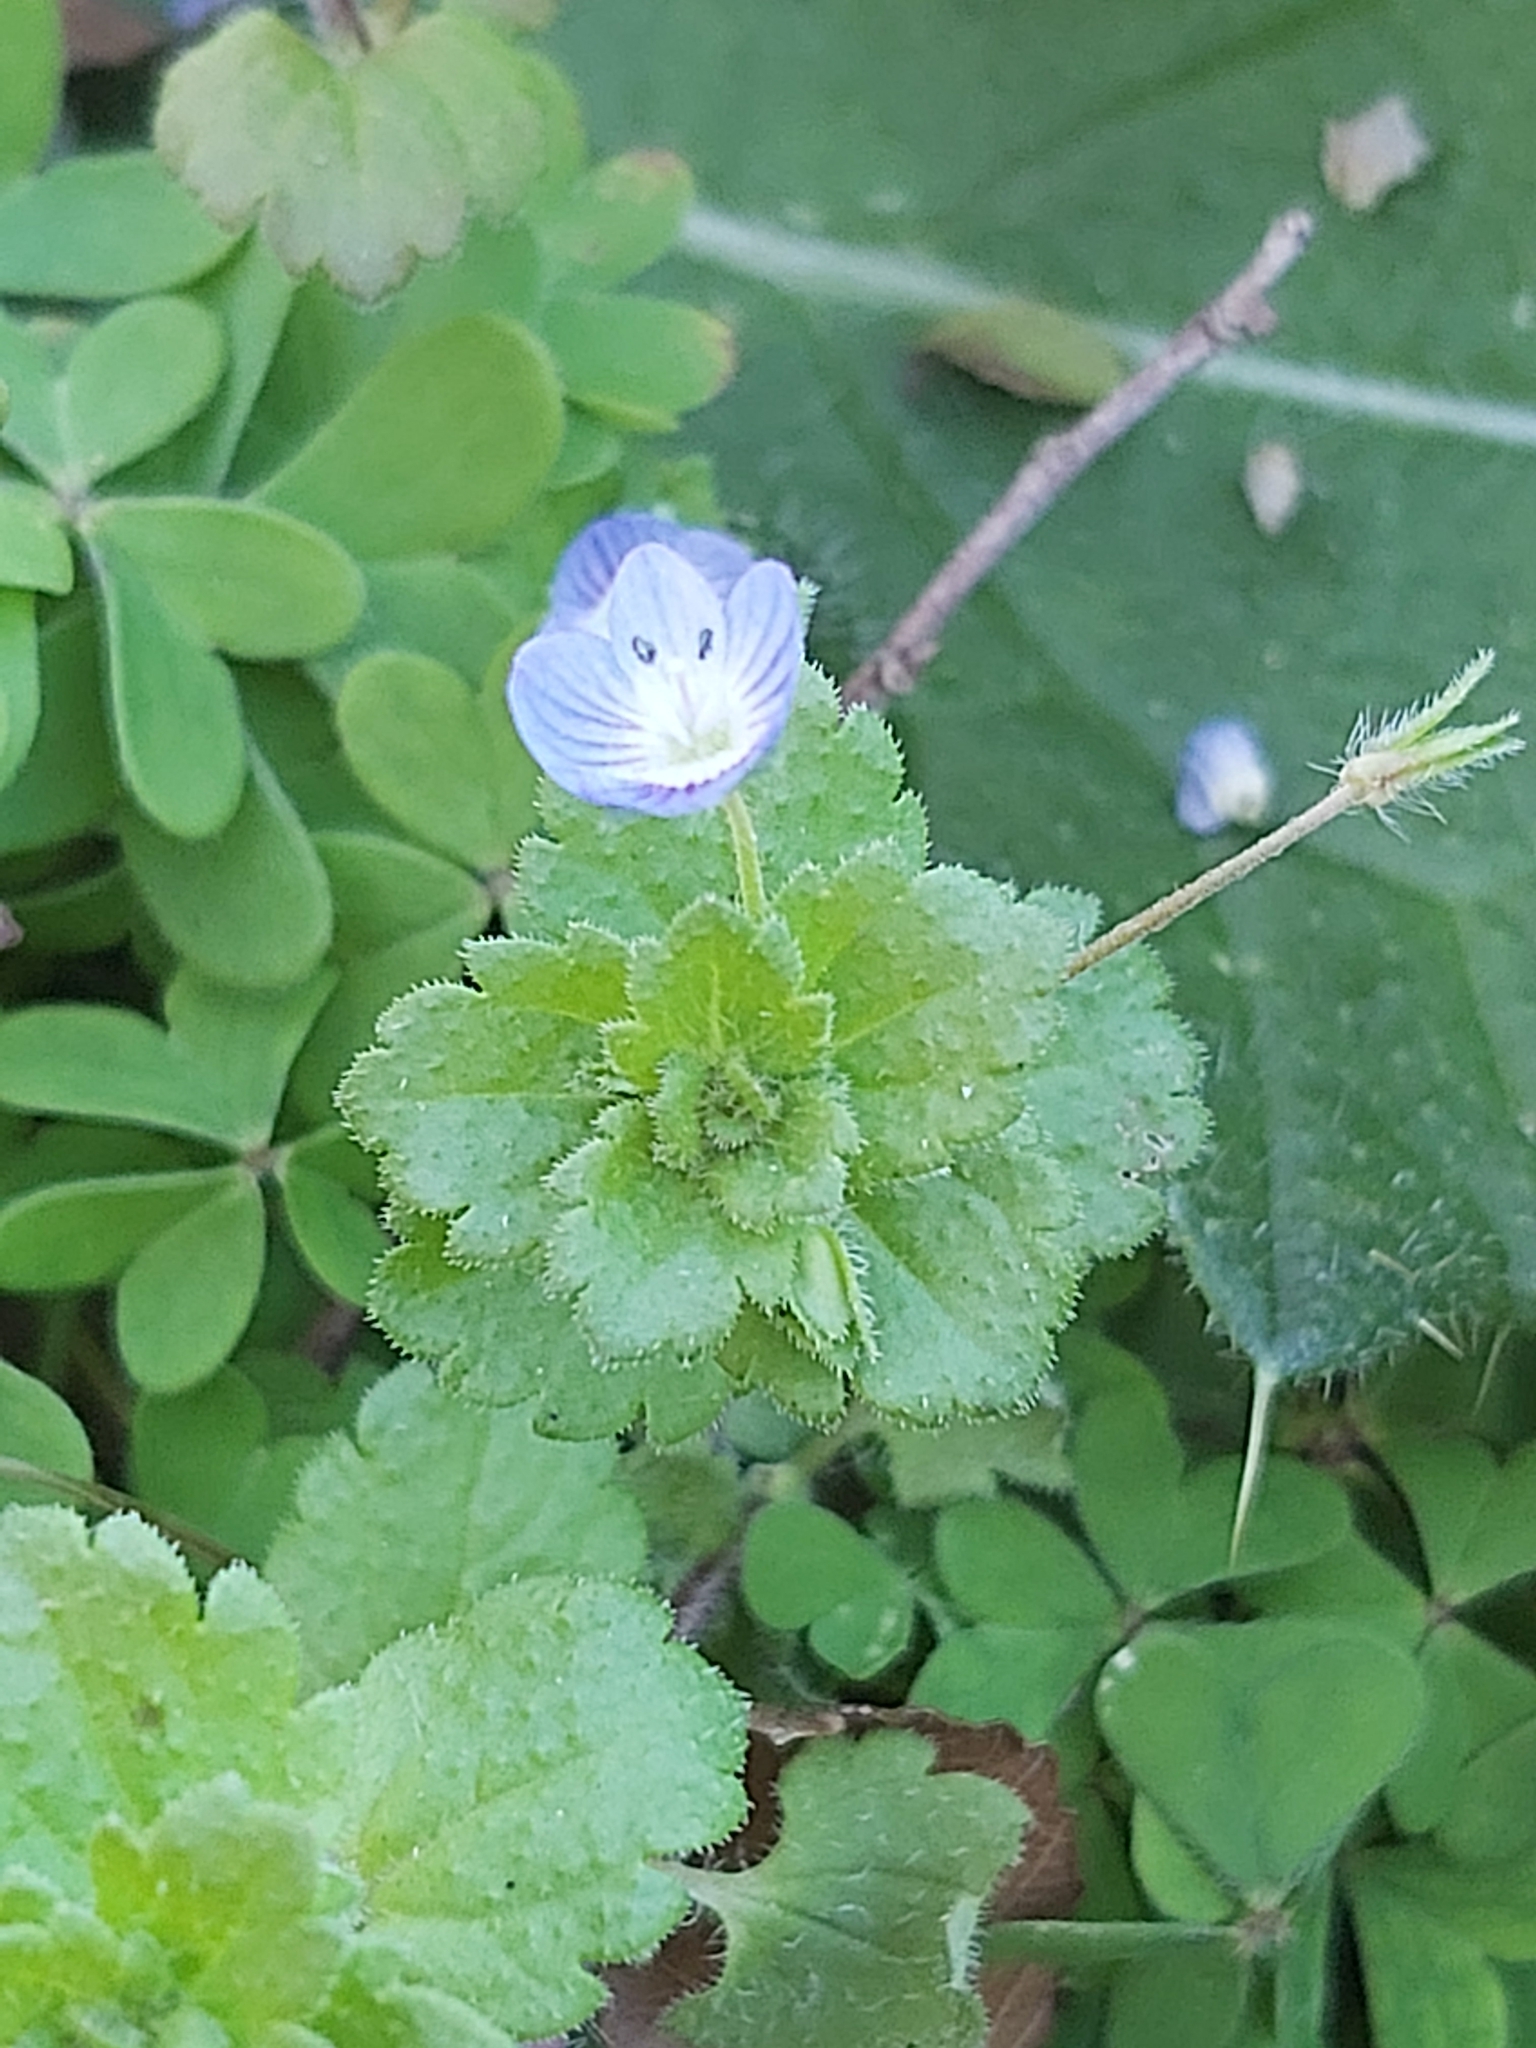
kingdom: Plantae
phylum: Tracheophyta
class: Magnoliopsida
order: Lamiales
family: Plantaginaceae
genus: Veronica
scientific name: Veronica persica
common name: Common field-speedwell
